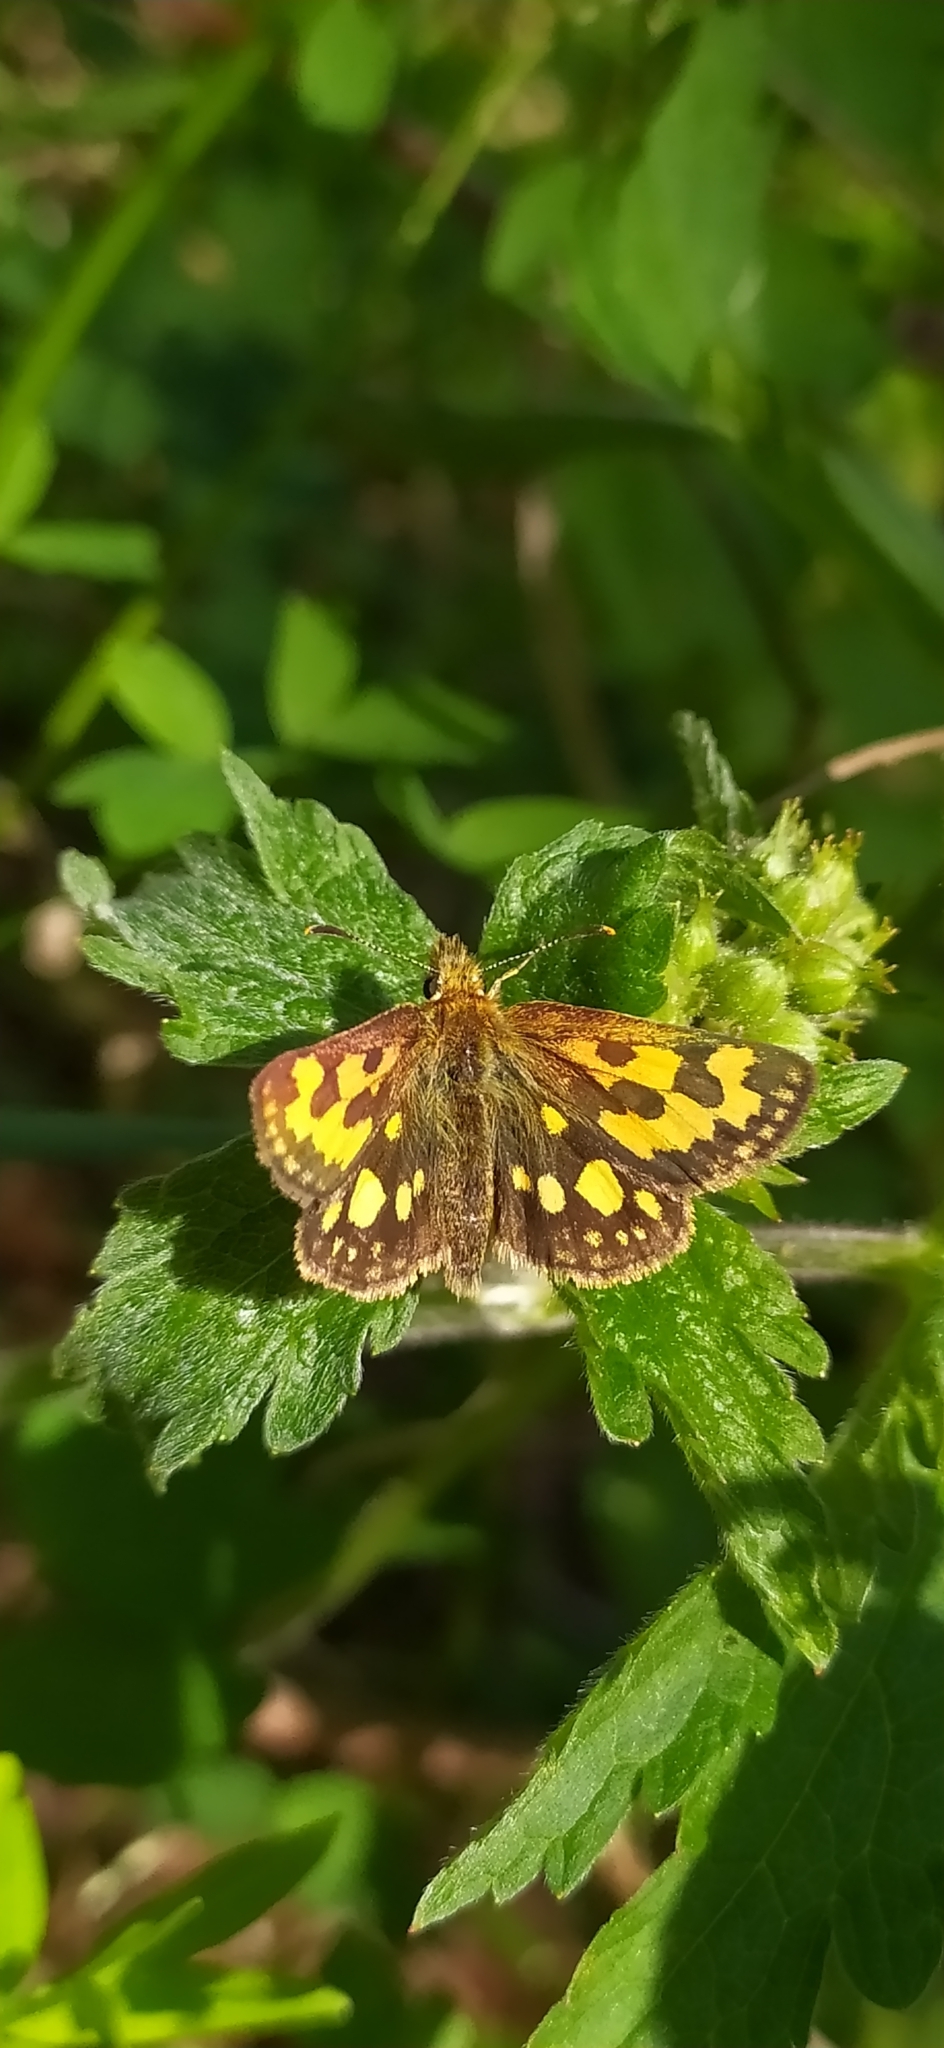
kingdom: Animalia
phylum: Arthropoda
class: Insecta
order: Lepidoptera
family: Hesperiidae
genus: Carterocephalus
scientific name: Carterocephalus silvicola
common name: Northern chequered skipper
